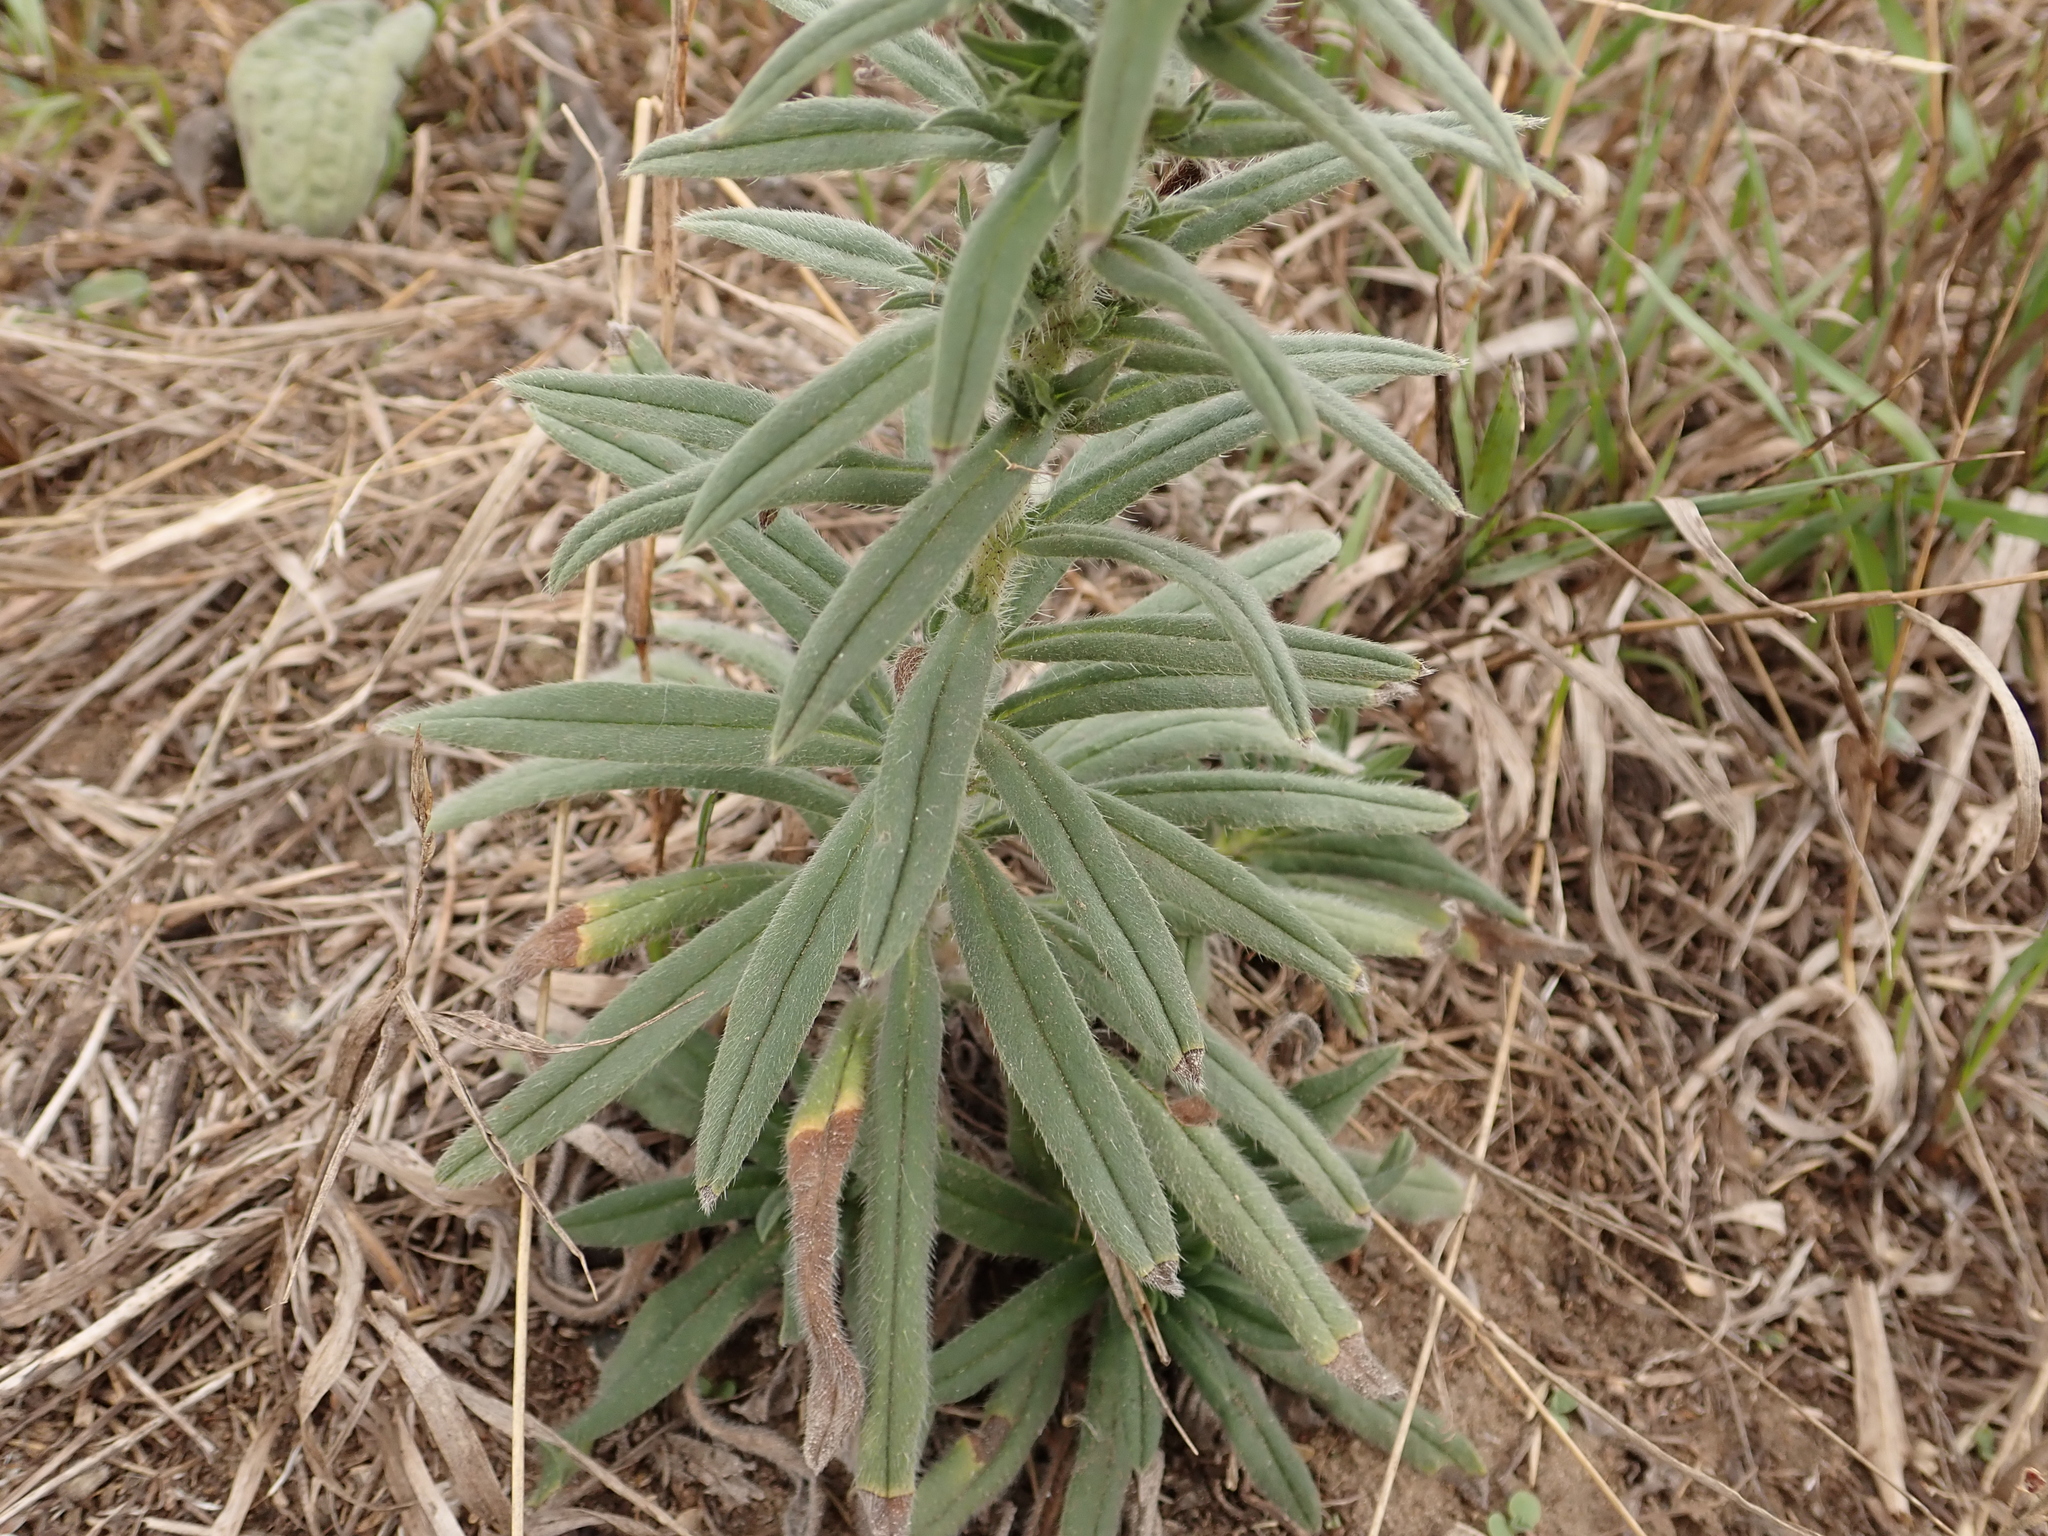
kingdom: Plantae
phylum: Tracheophyta
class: Magnoliopsida
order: Boraginales
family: Boraginaceae
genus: Cynoglossum
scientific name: Cynoglossum officinale
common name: Hound's-tongue
